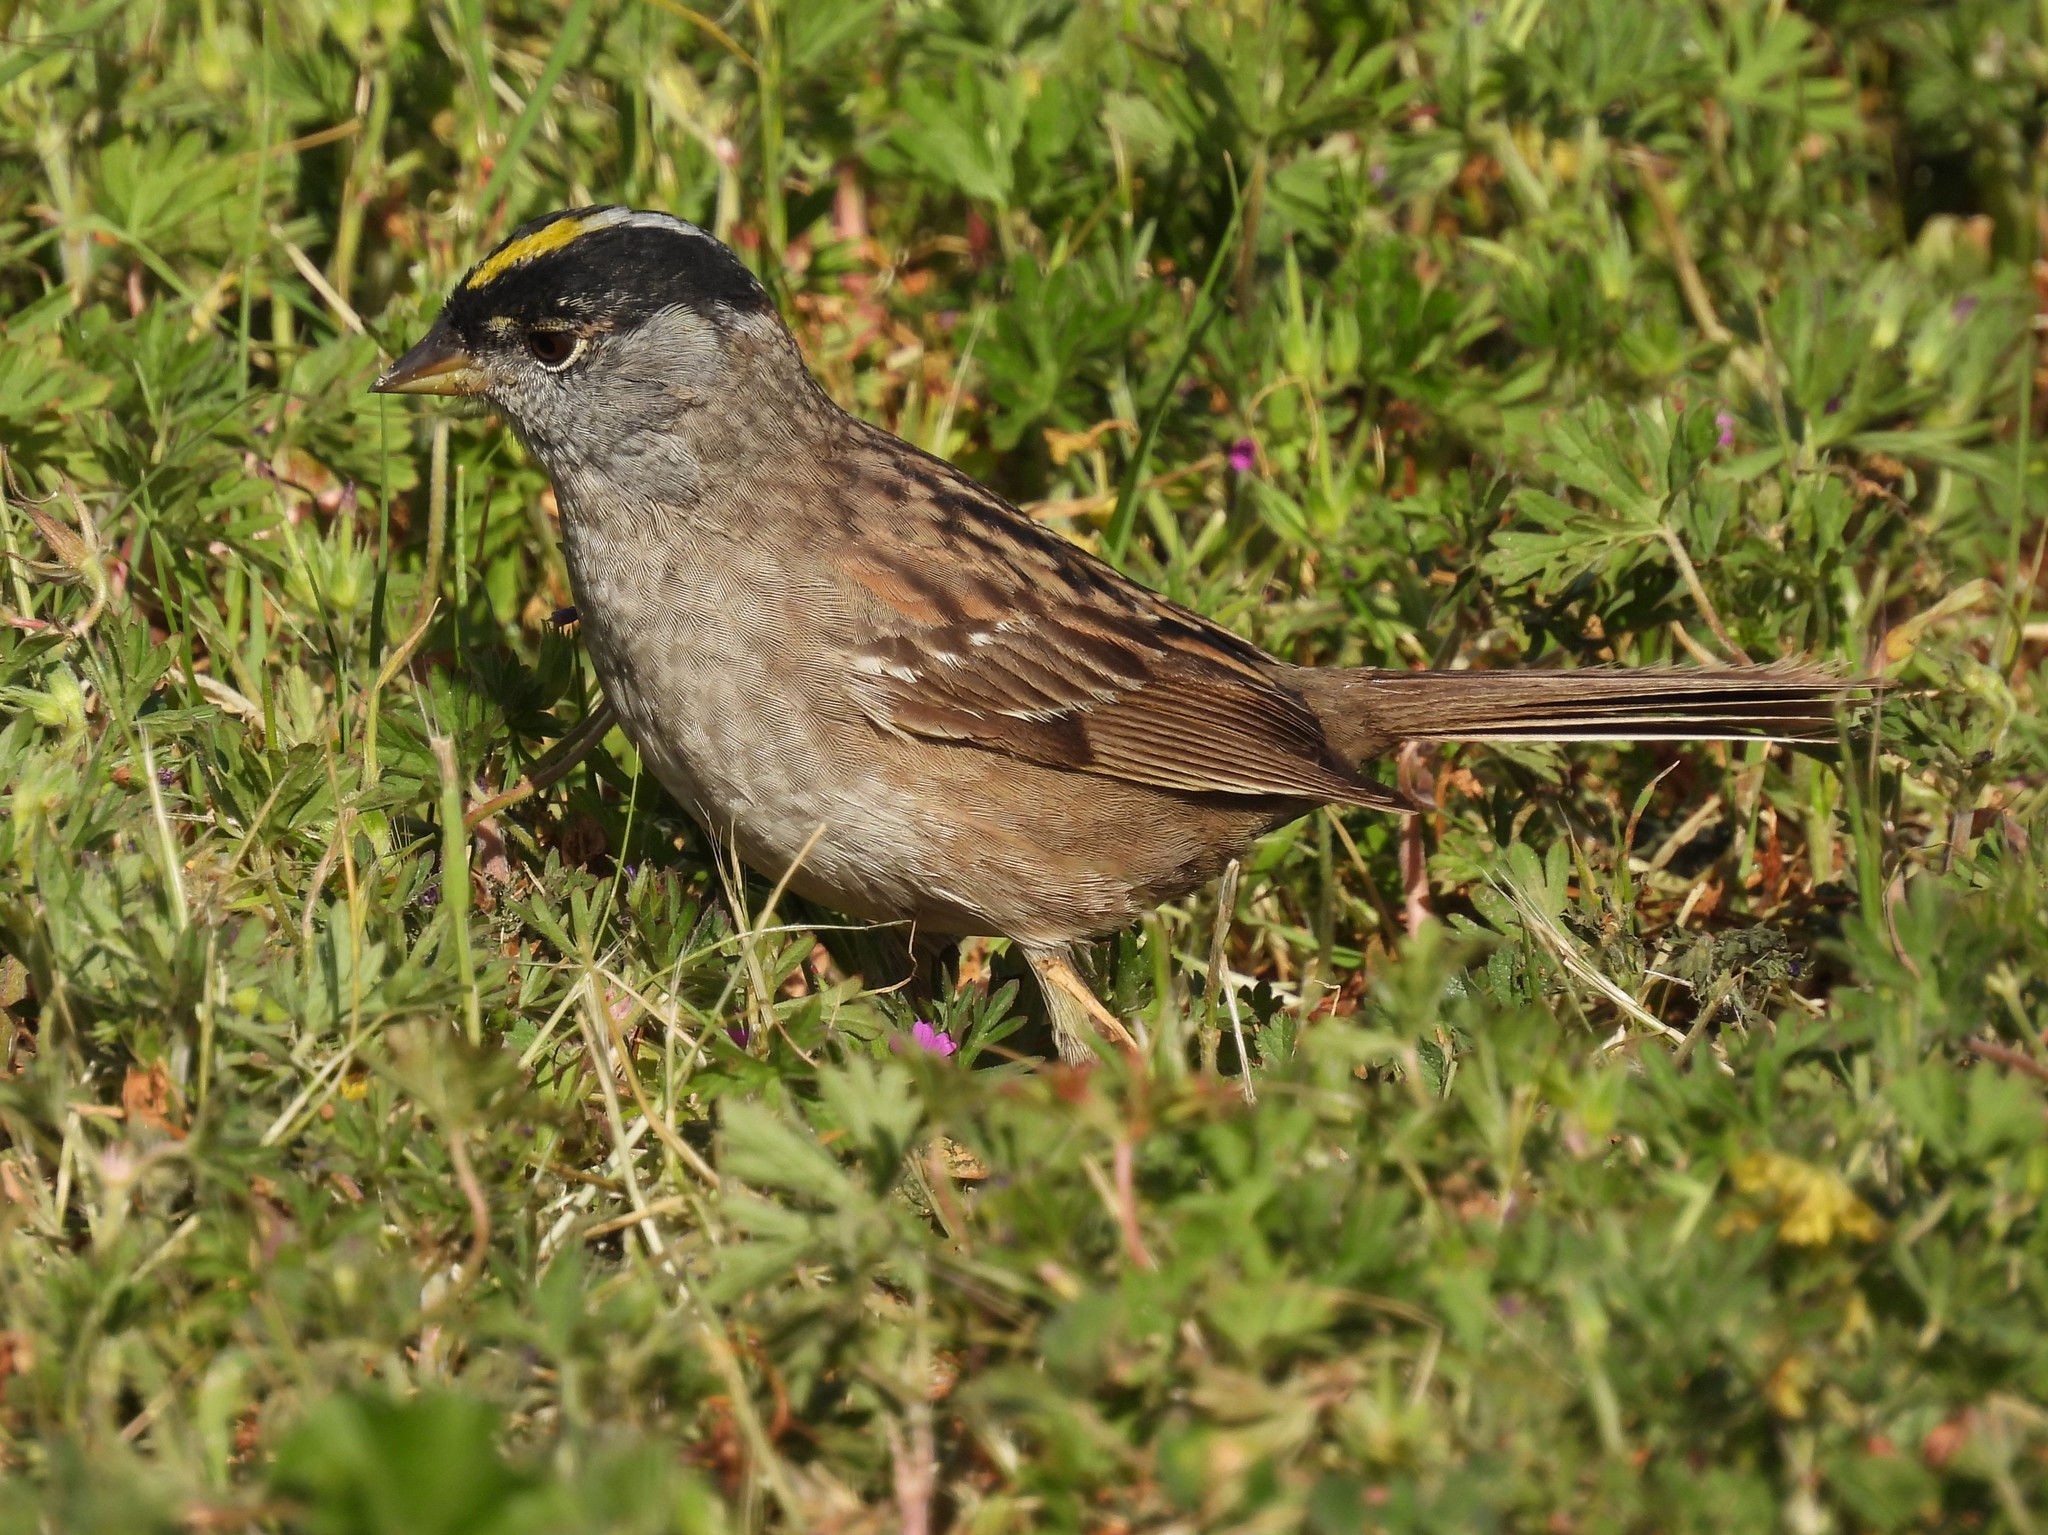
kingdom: Animalia
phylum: Chordata
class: Aves
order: Passeriformes
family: Passerellidae
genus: Zonotrichia
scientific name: Zonotrichia atricapilla
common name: Golden-crowned sparrow
